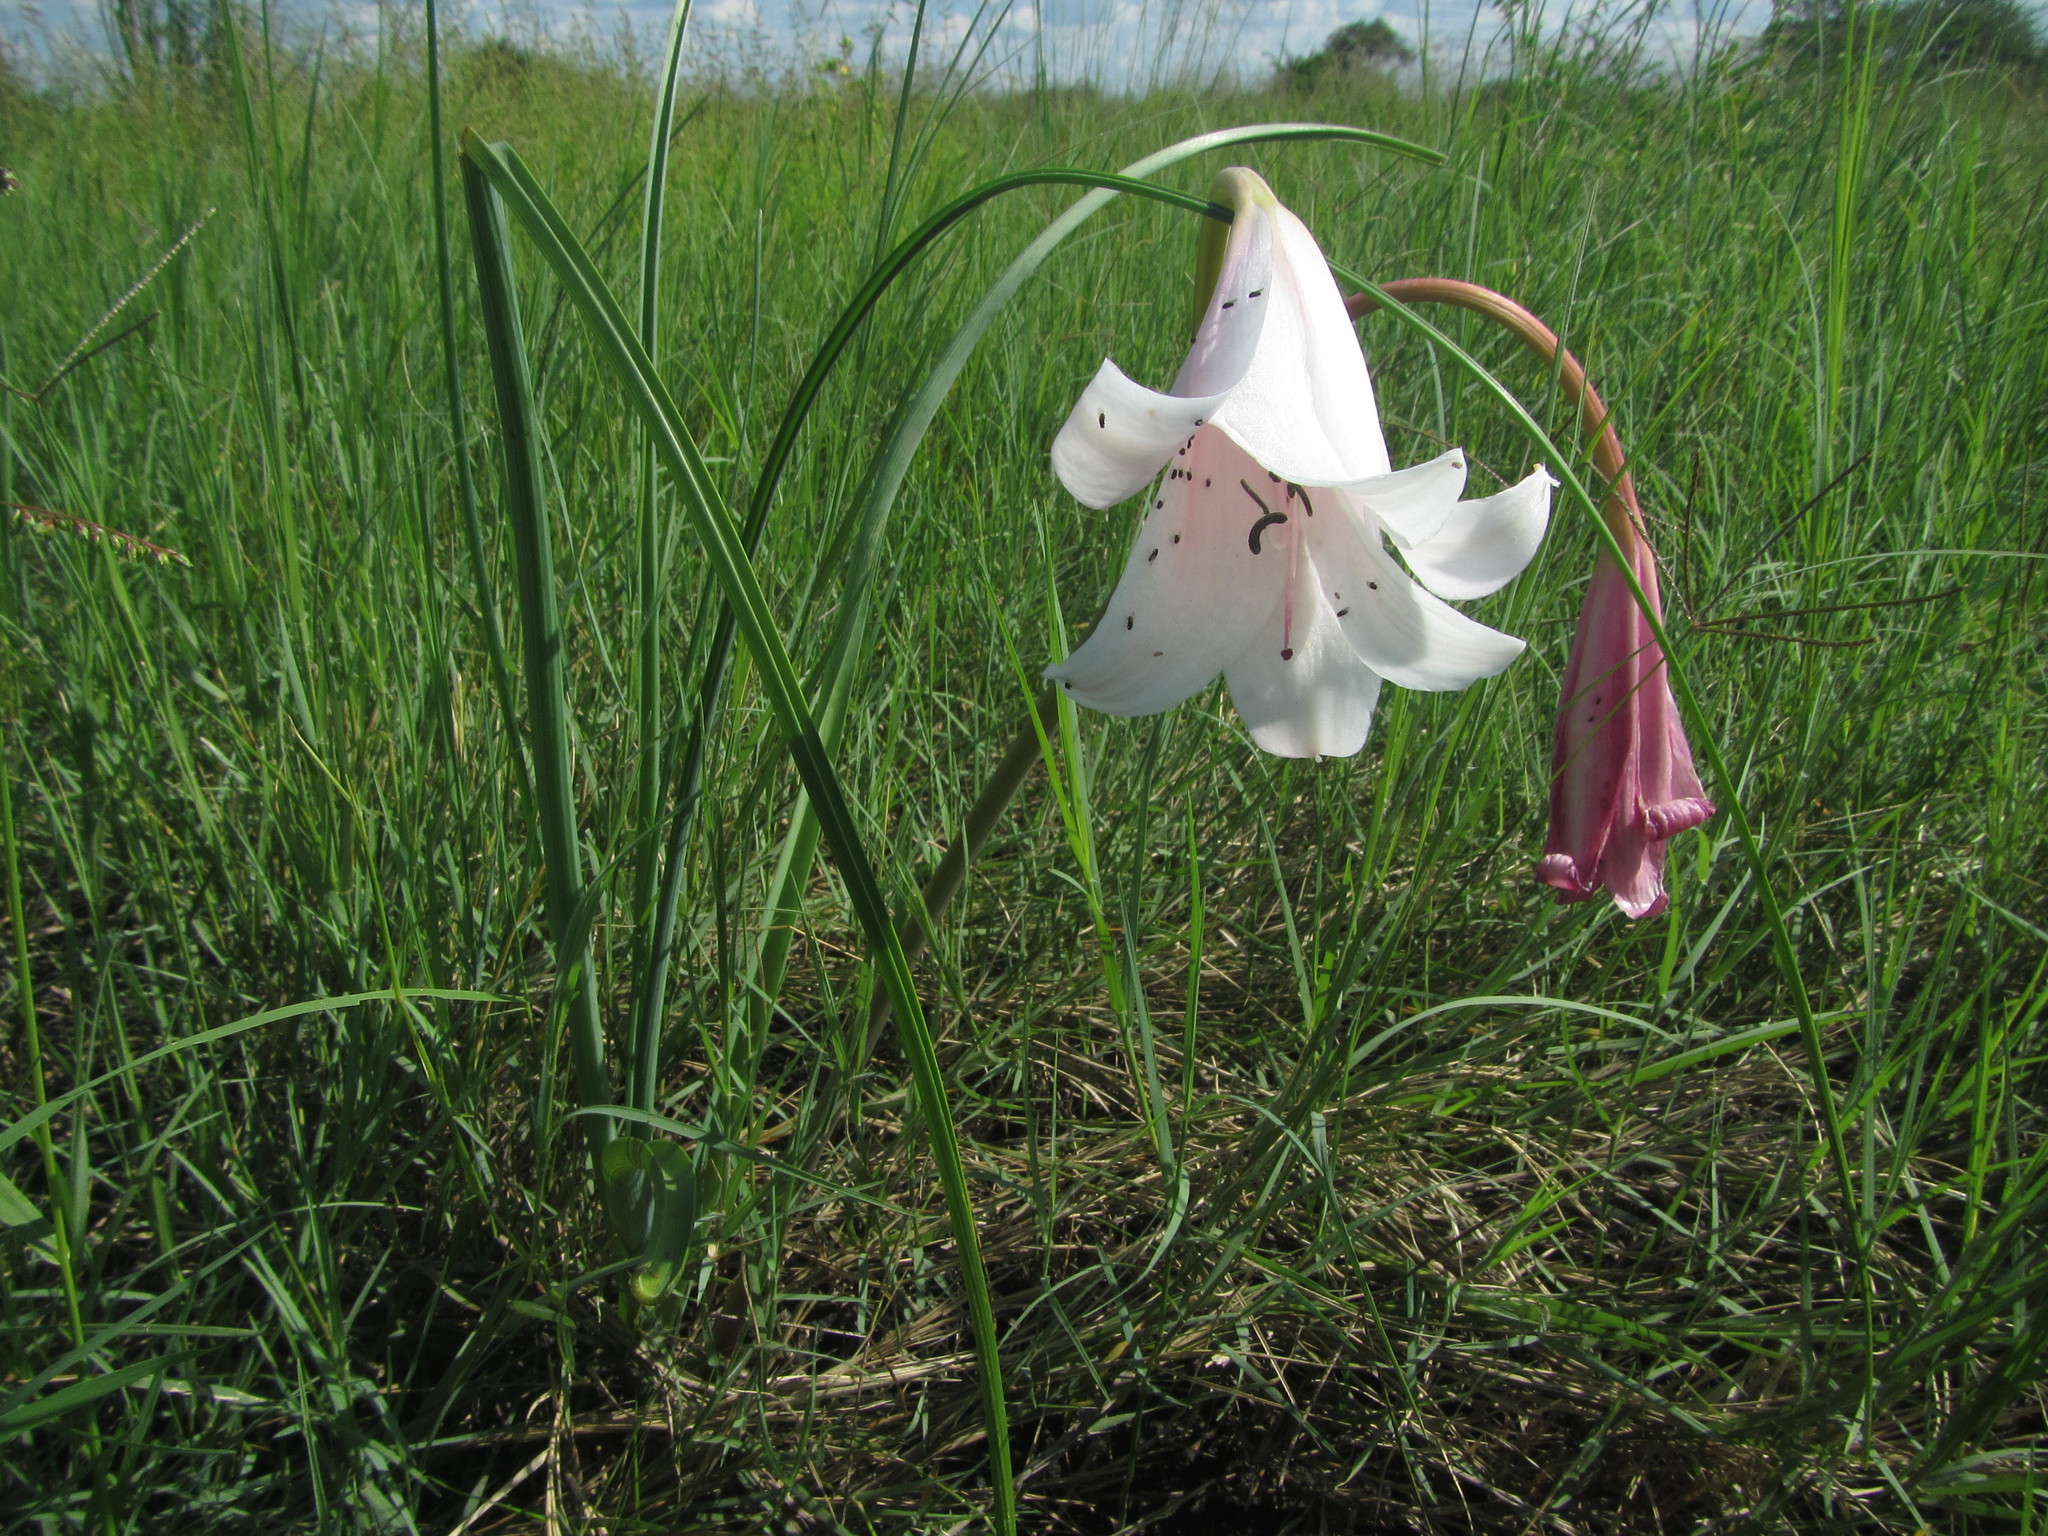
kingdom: Plantae
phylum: Tracheophyta
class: Liliopsida
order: Asparagales
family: Amaryllidaceae
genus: Crinum
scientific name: Crinum carolo-schmidtii
